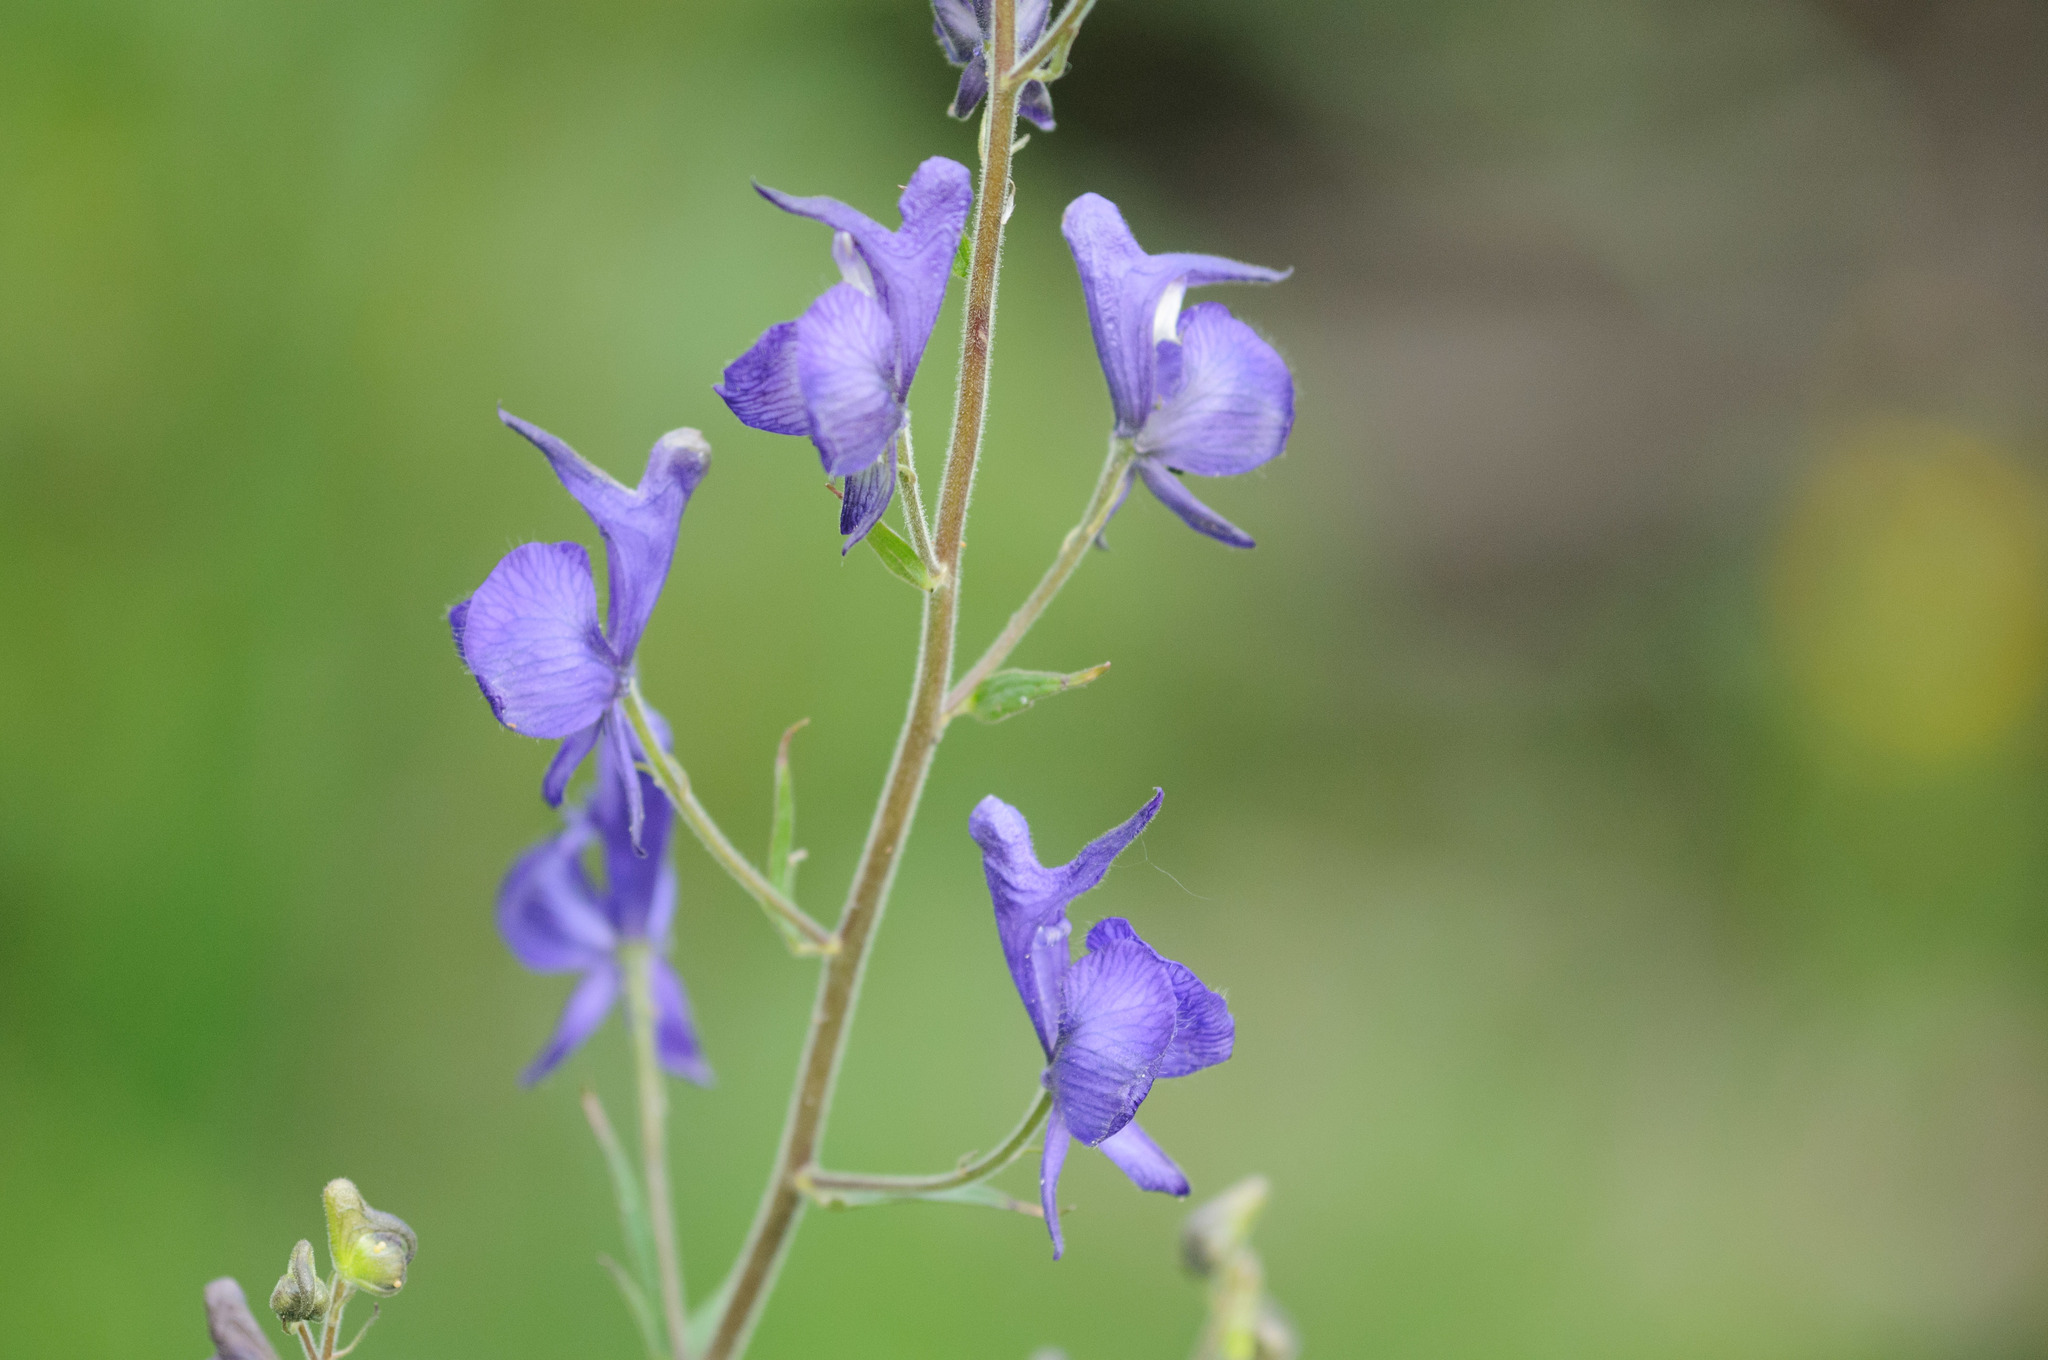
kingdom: Plantae
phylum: Tracheophyta
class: Magnoliopsida
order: Ranunculales
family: Ranunculaceae
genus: Aconitum
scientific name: Aconitum columbianum
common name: Columbia aconite
